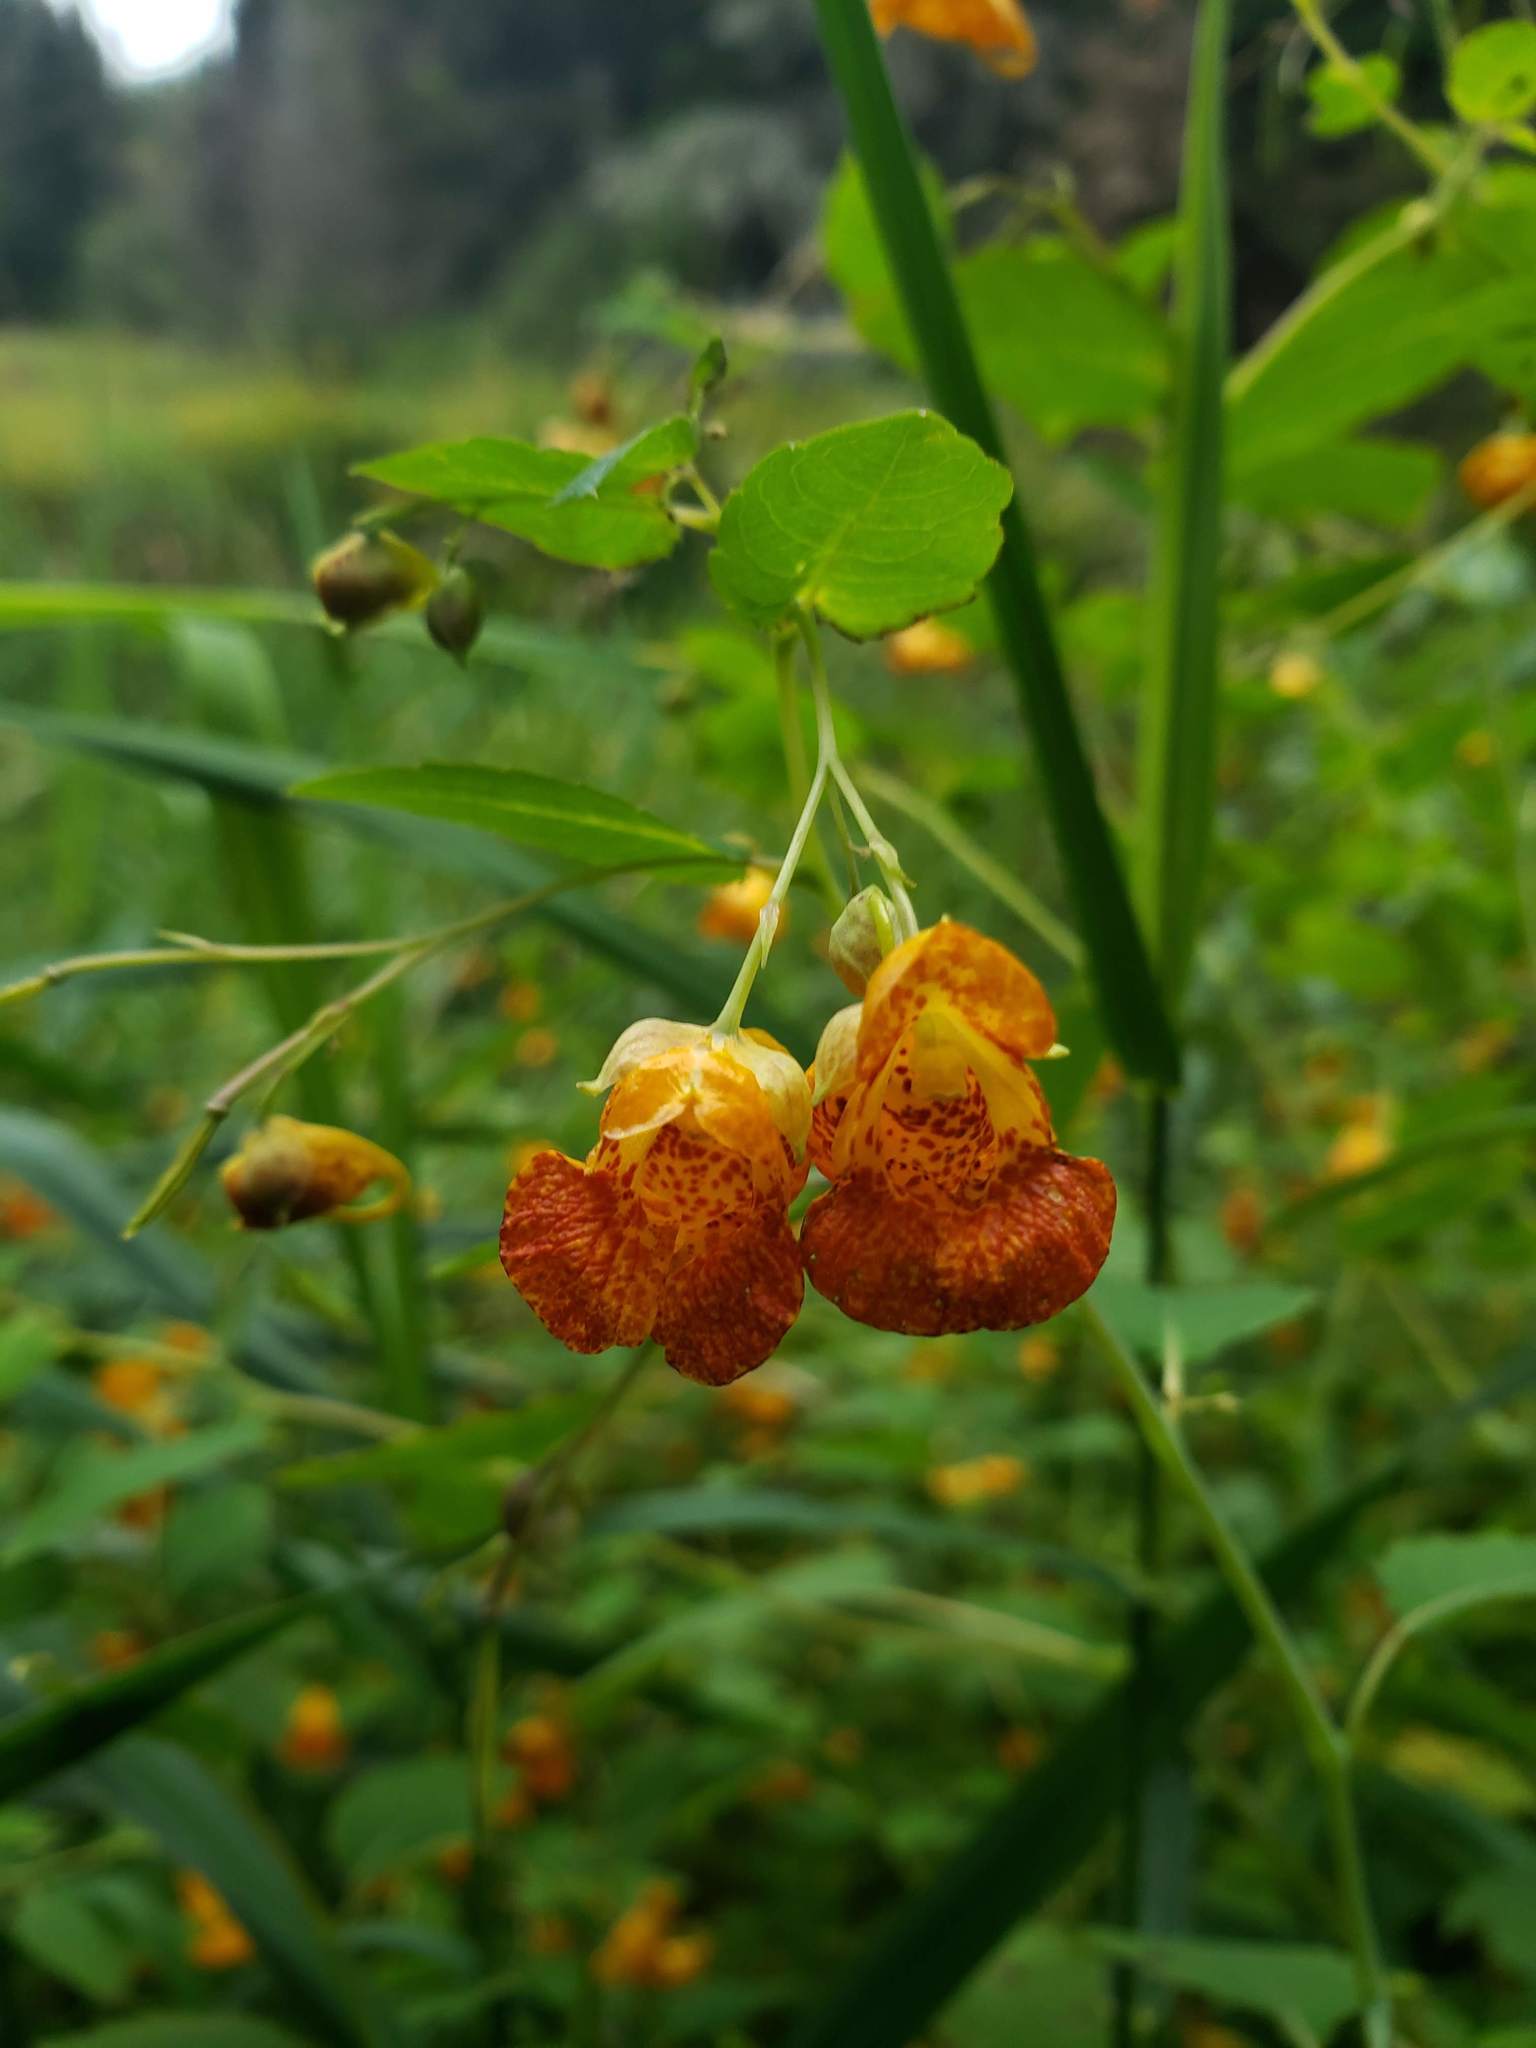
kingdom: Plantae
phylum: Tracheophyta
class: Magnoliopsida
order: Ericales
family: Balsaminaceae
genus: Impatiens
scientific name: Impatiens capensis
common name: Orange balsam
